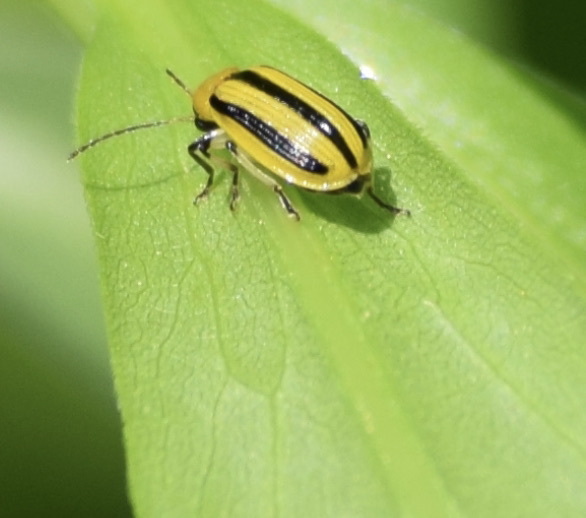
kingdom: Animalia
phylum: Arthropoda
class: Insecta
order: Coleoptera
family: Chrysomelidae
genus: Acalymma
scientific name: Acalymma vittatum
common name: Striped cucumber beetle
